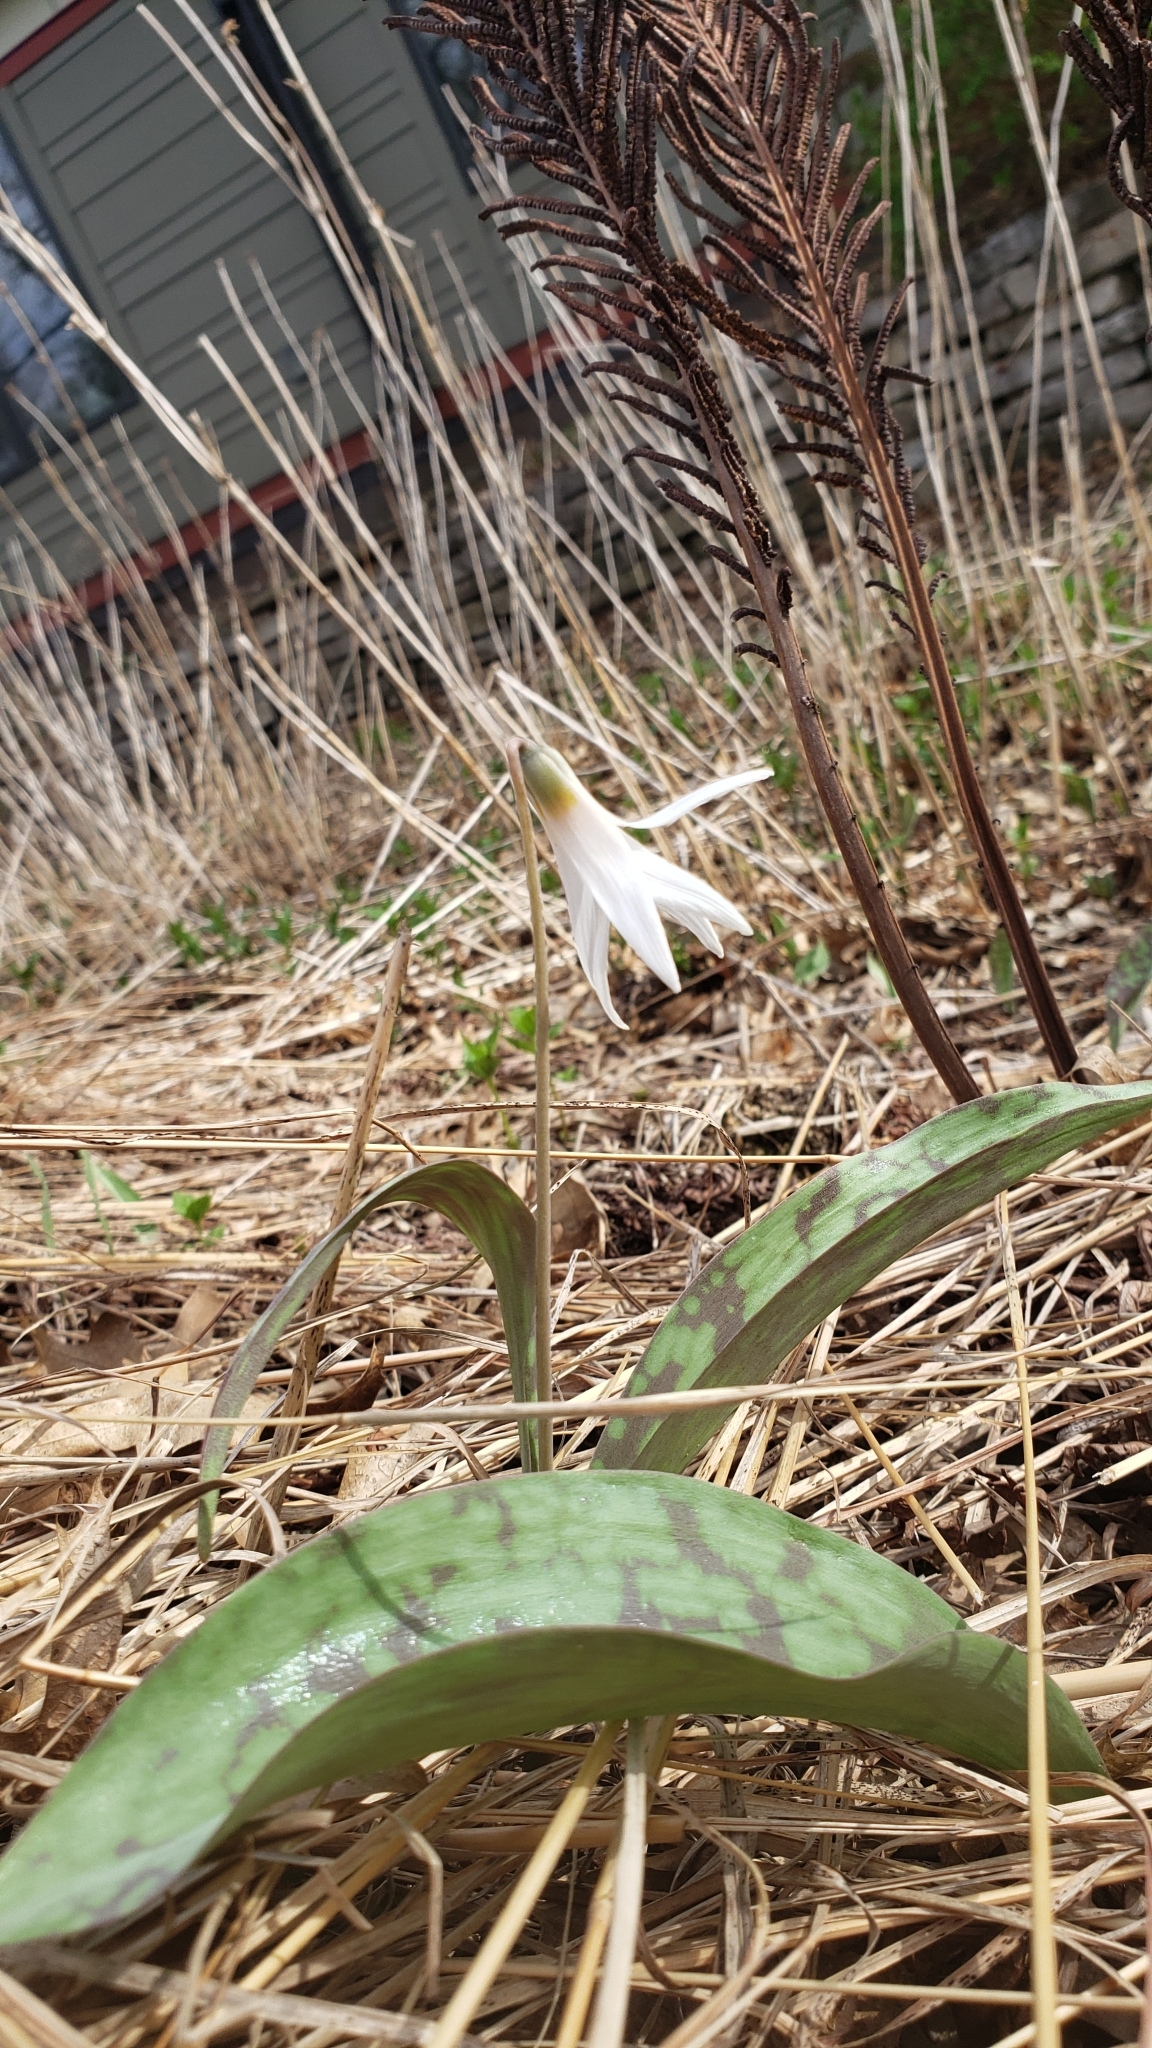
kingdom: Plantae
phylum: Tracheophyta
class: Liliopsida
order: Liliales
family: Liliaceae
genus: Erythronium
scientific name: Erythronium albidum
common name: White trout-lily
